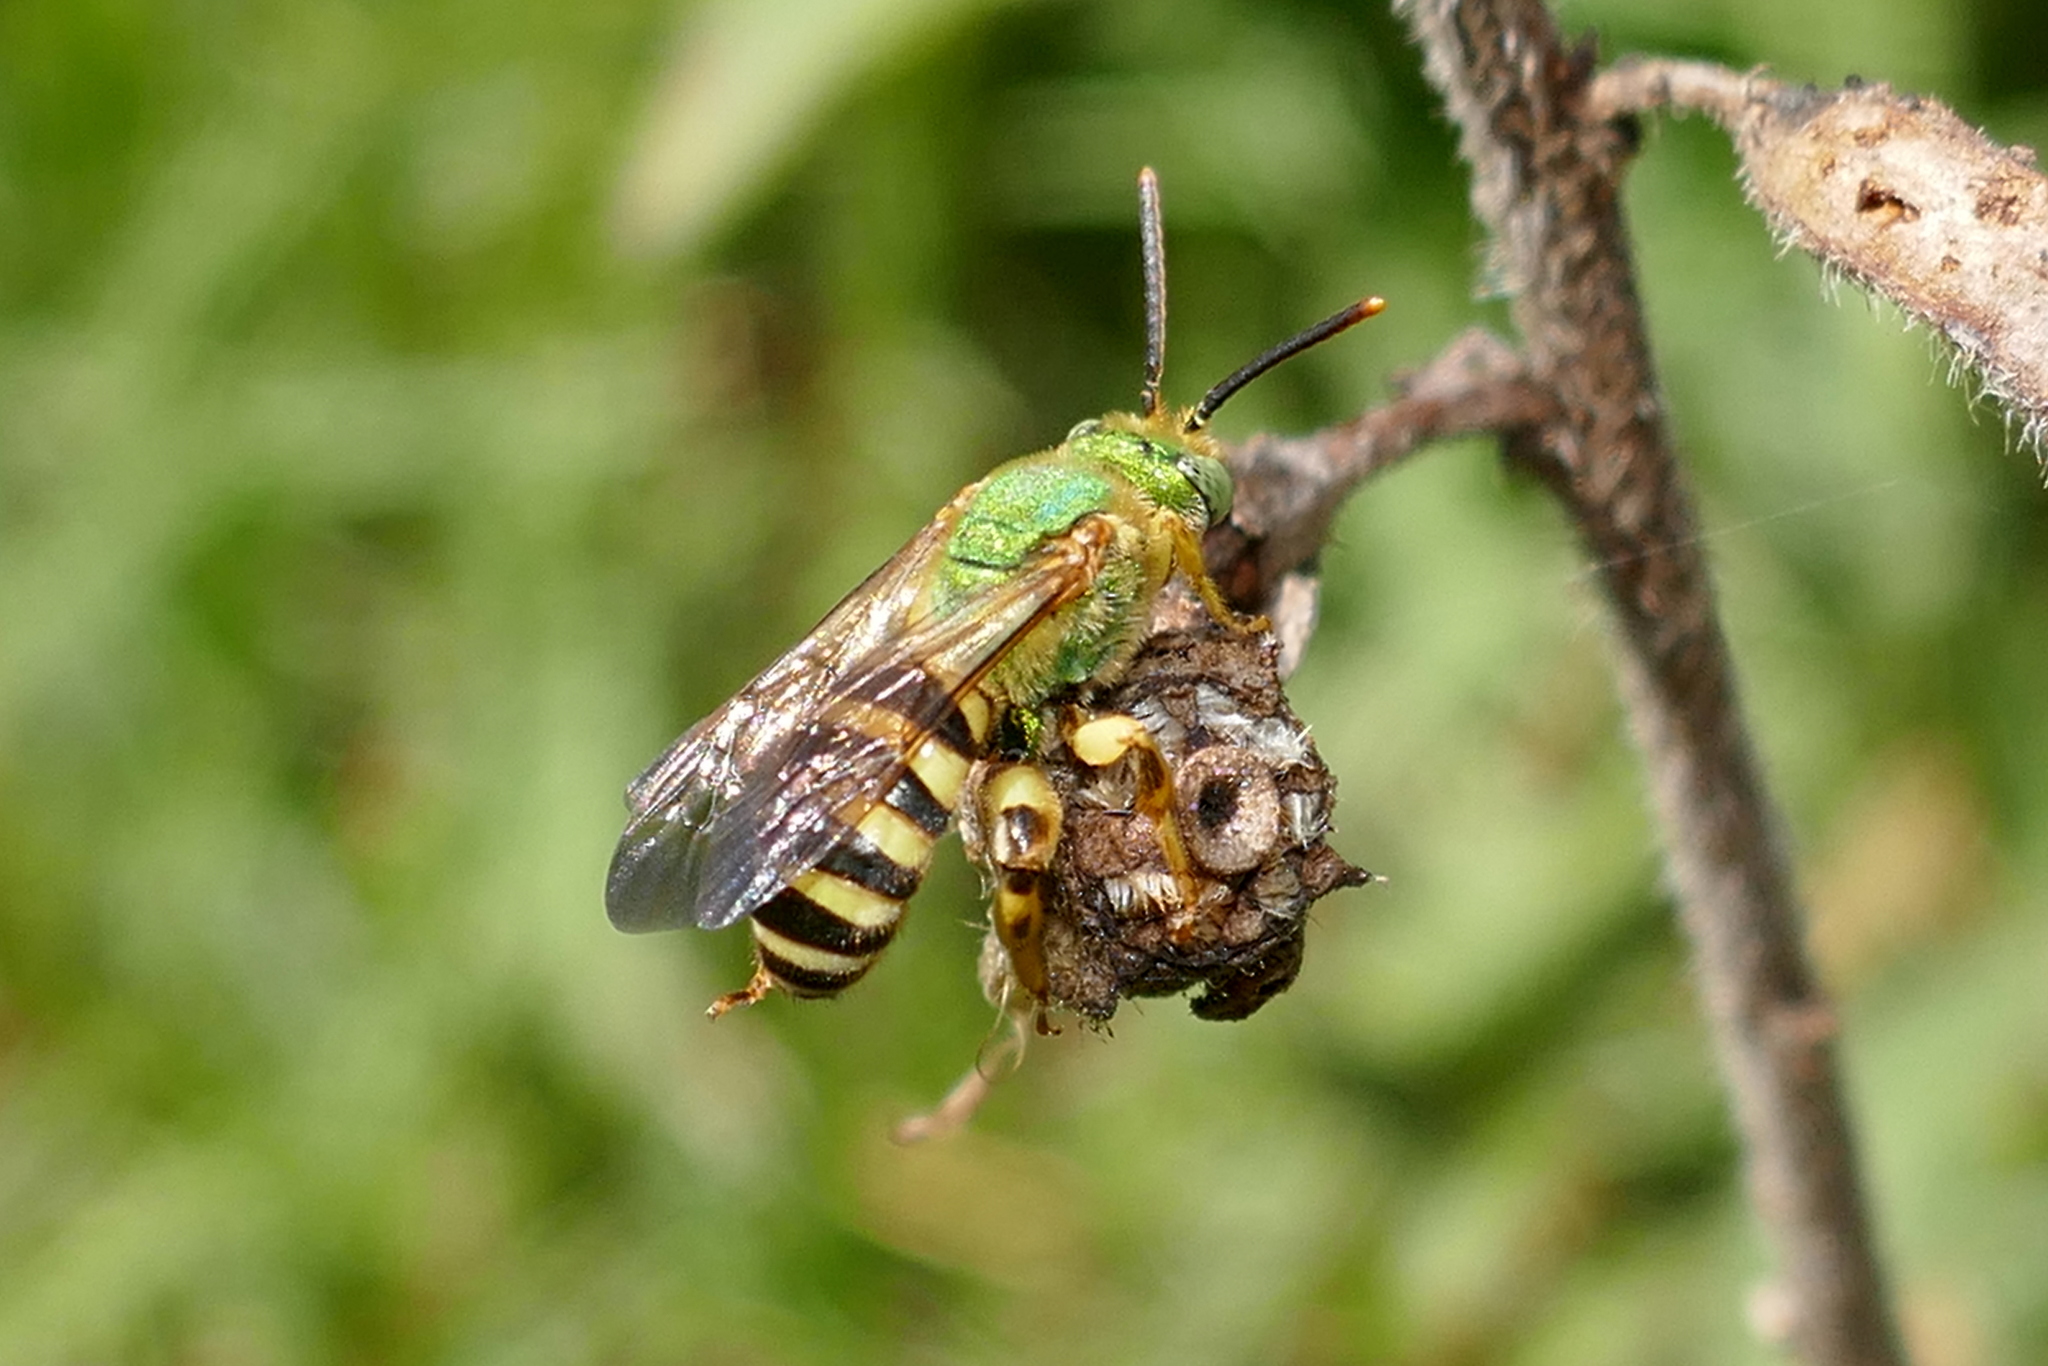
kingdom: Animalia
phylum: Arthropoda
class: Insecta
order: Hymenoptera
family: Halictidae
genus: Agapostemon
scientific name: Agapostemon splendens
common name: Brown-winged striped sweat bee
